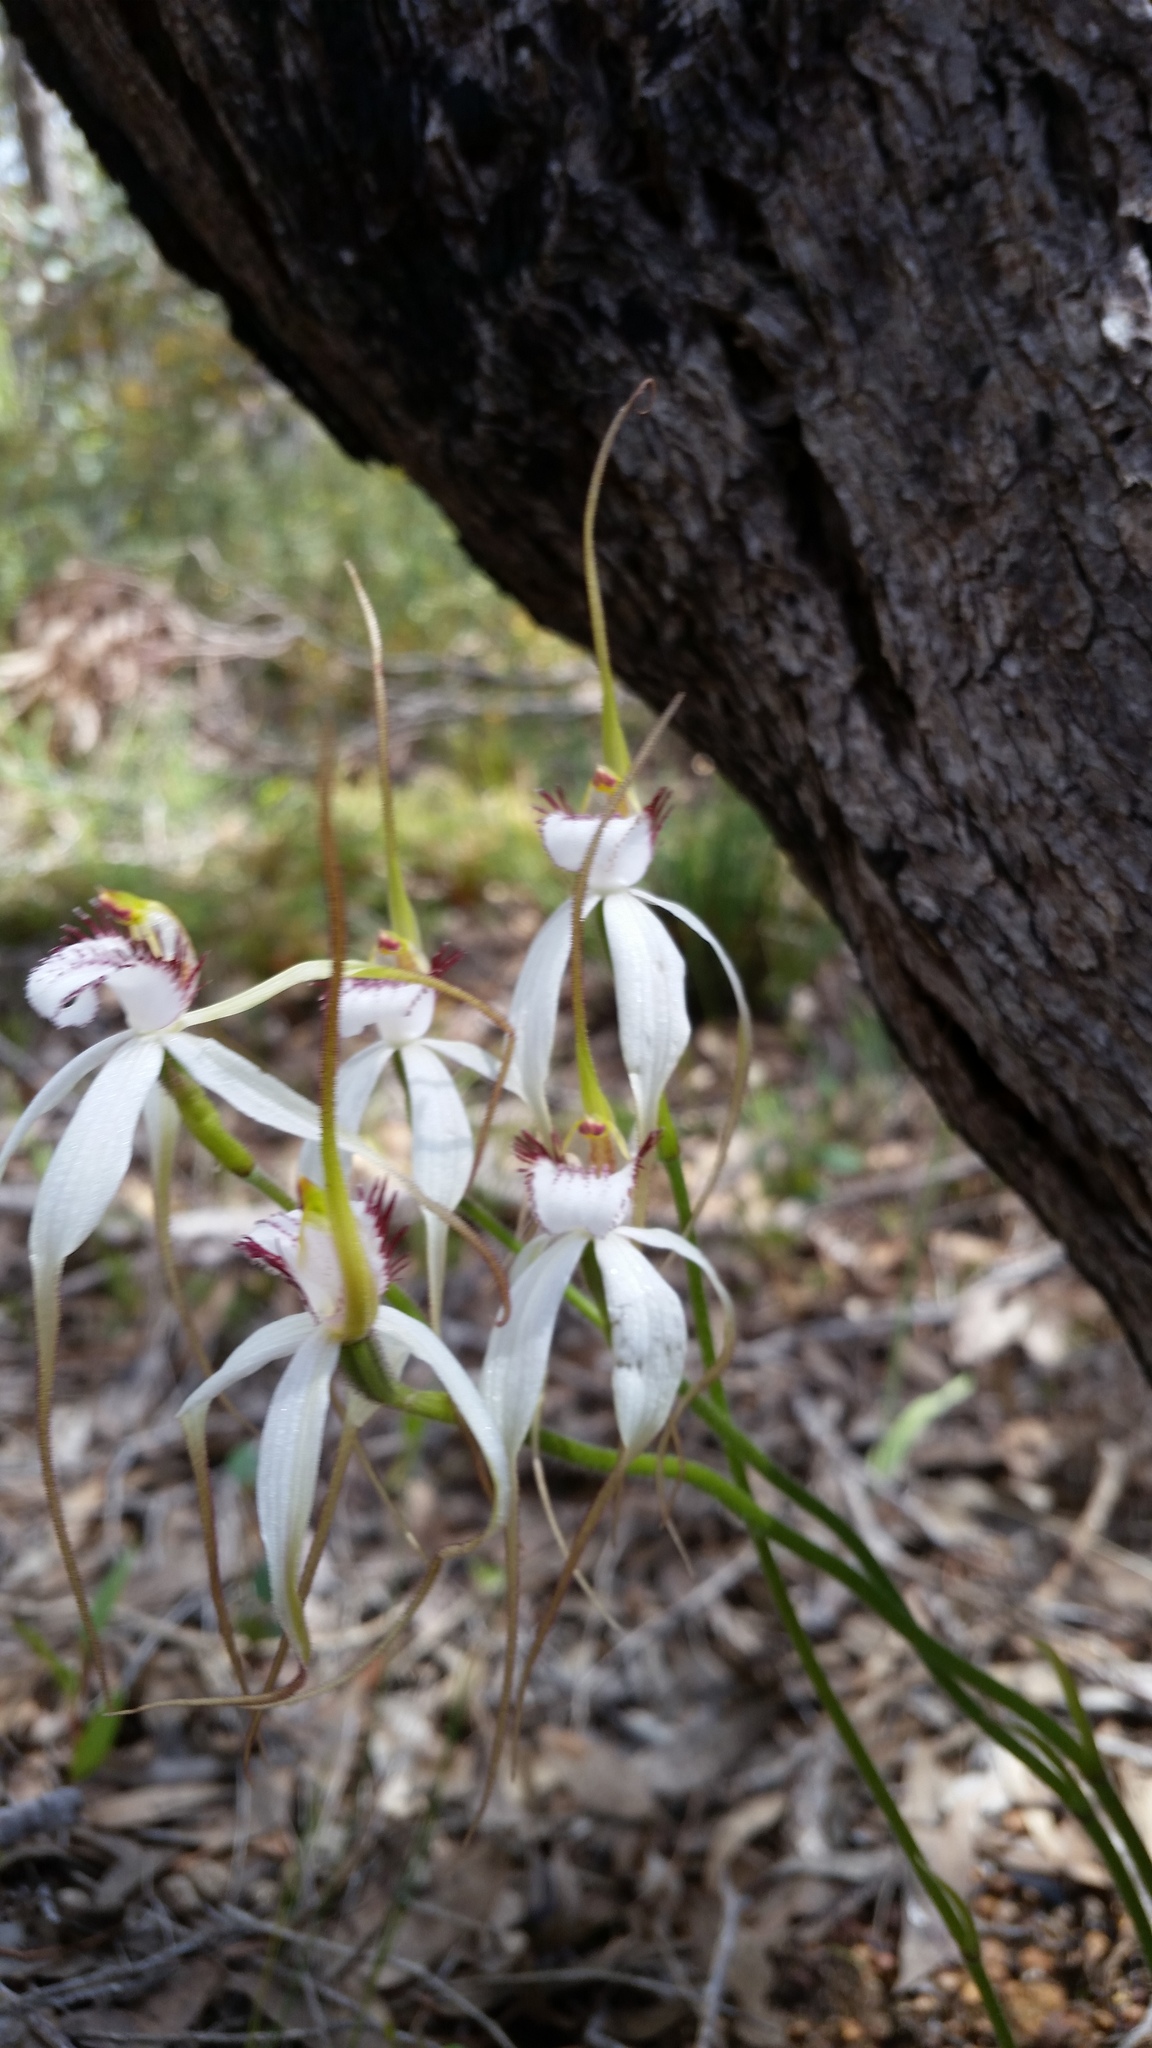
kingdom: Plantae
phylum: Tracheophyta
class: Liliopsida
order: Asparagales
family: Orchidaceae
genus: Caladenia
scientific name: Caladenia longicauda
